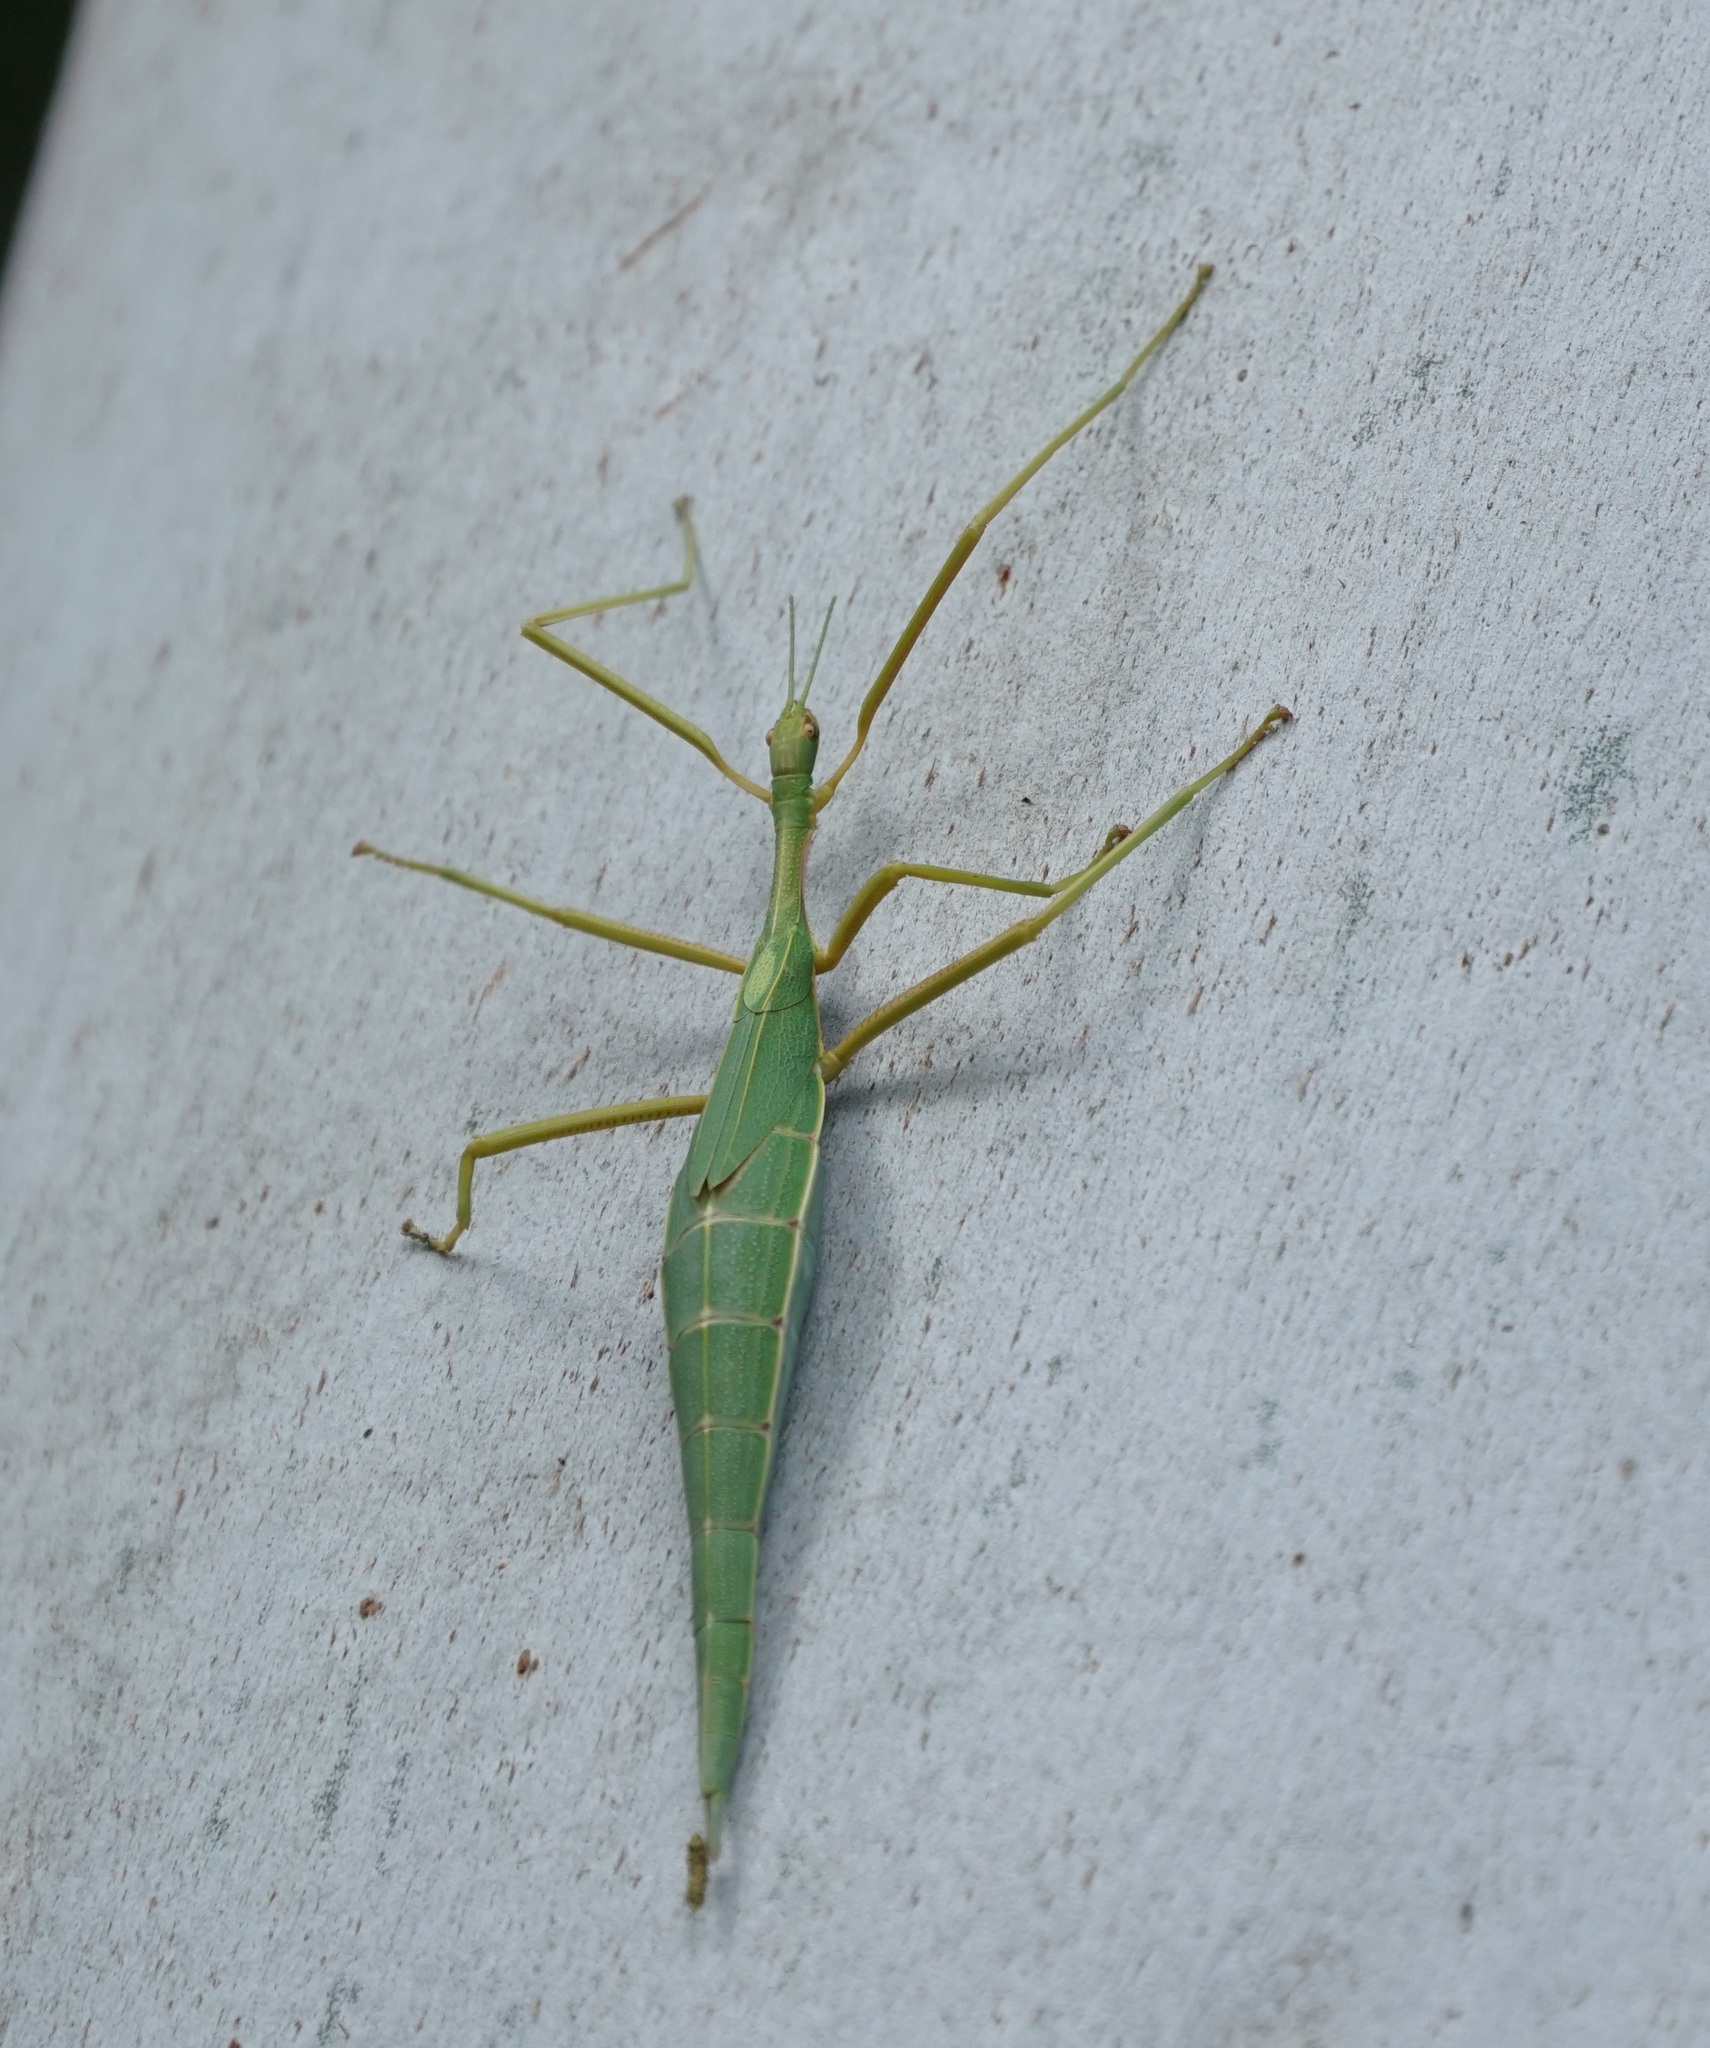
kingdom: Animalia
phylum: Arthropoda
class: Insecta
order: Phasmida
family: Phasmatidae
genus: Didymuria
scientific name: Didymuria violescens
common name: Spur-legged stick-insect
